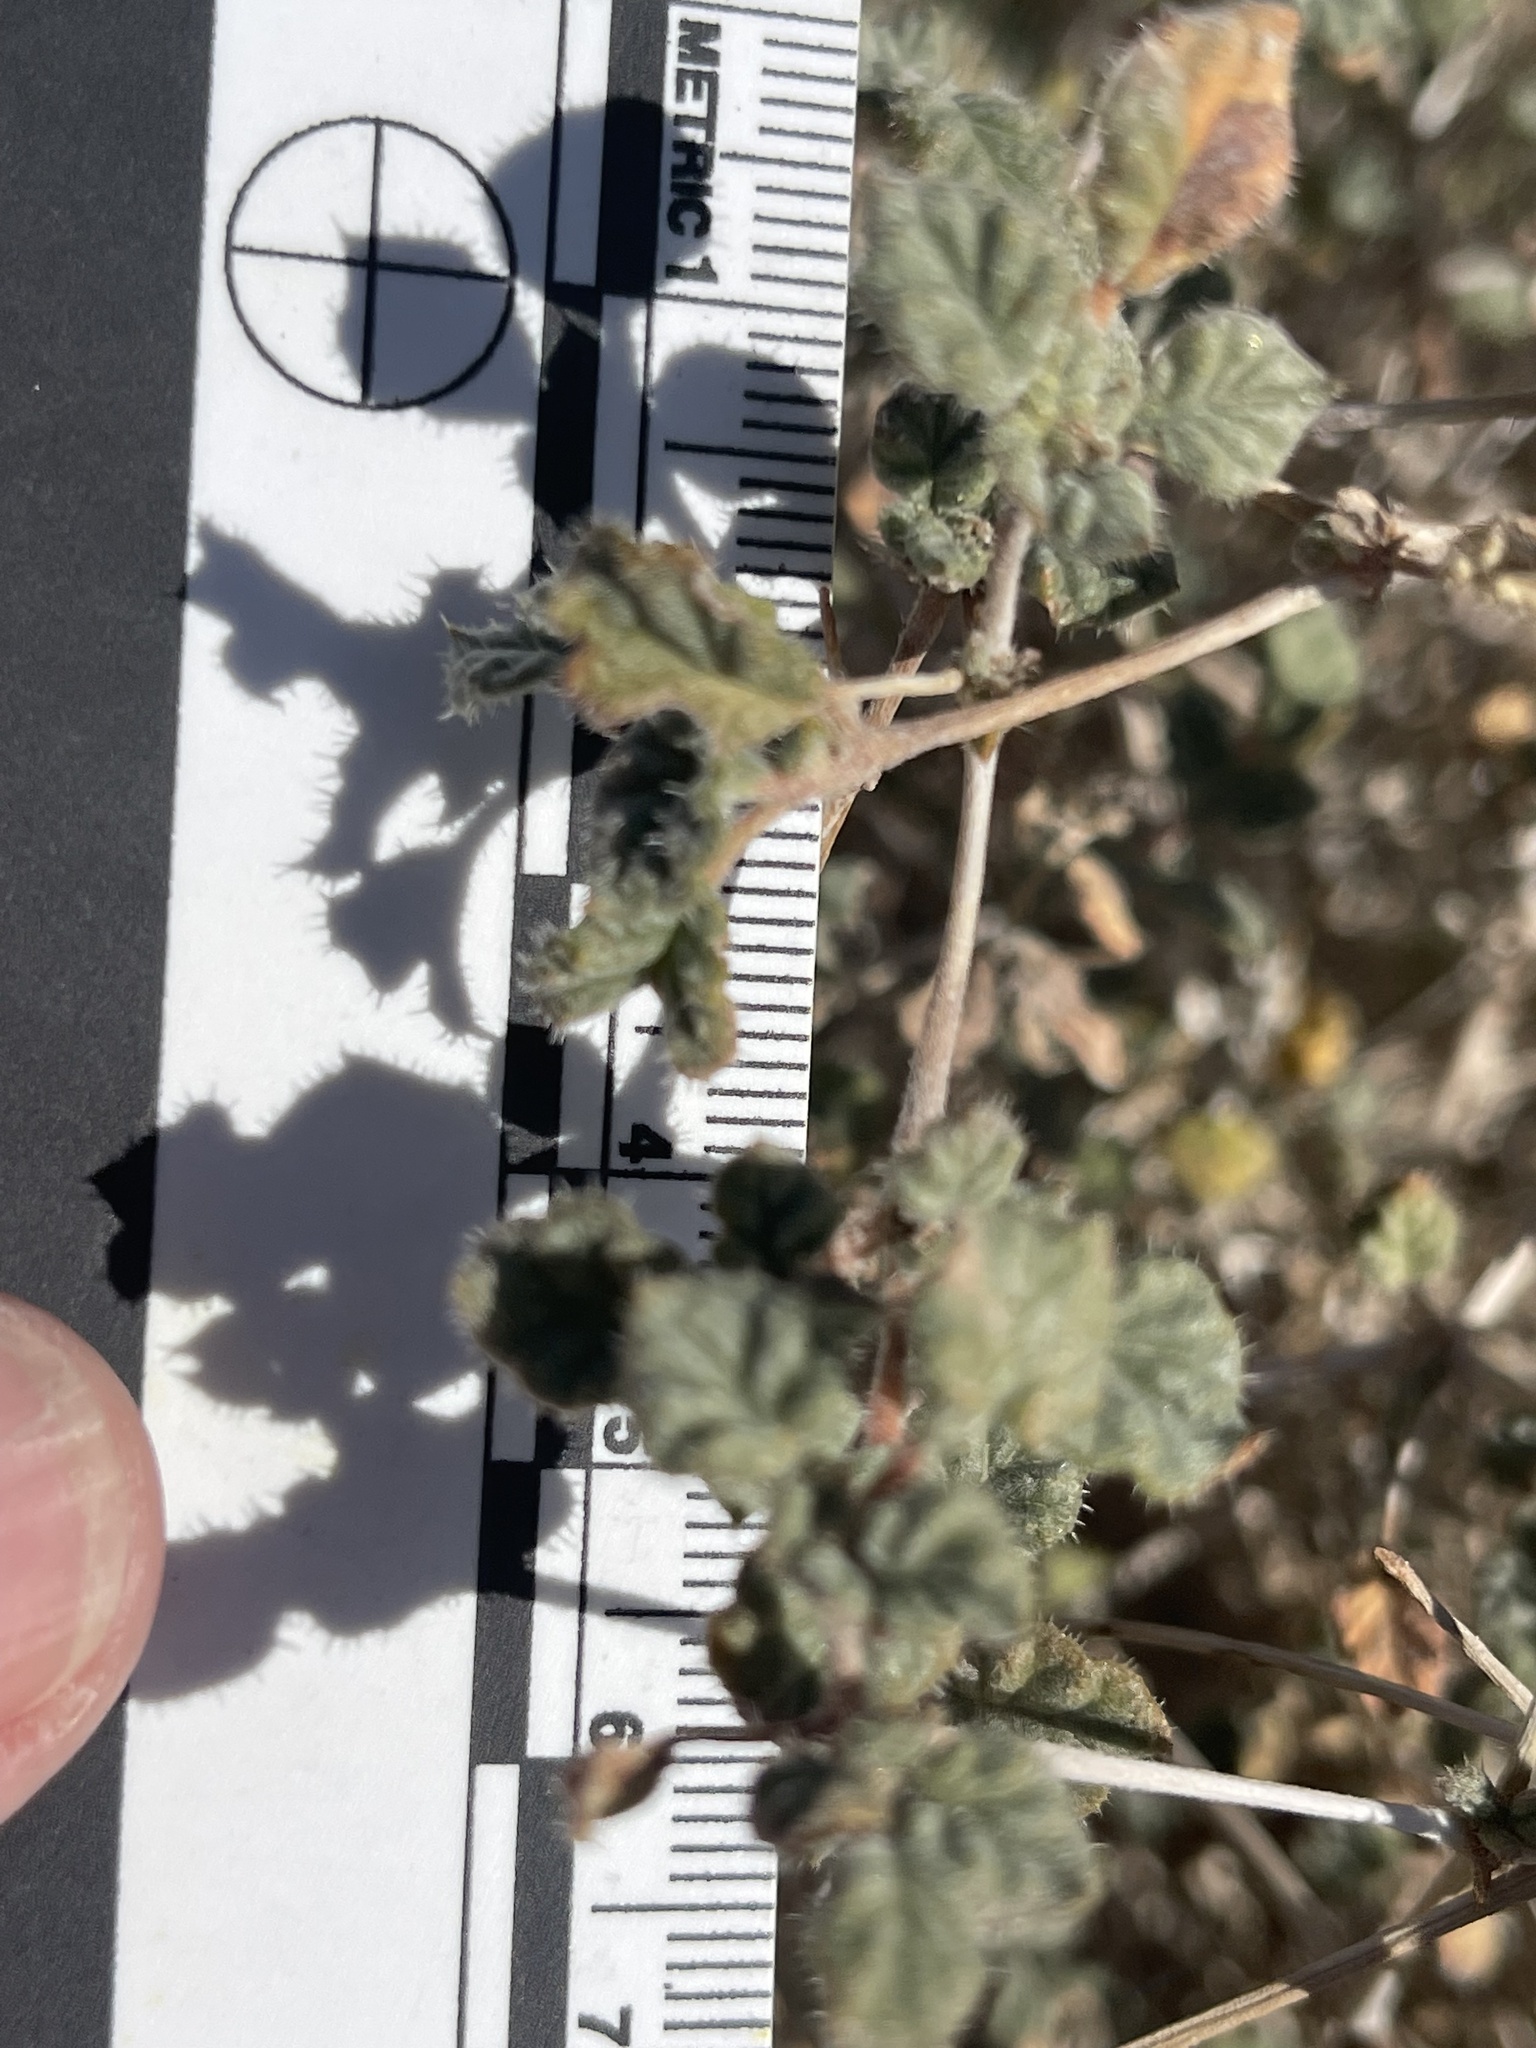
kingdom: Plantae
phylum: Tracheophyta
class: Magnoliopsida
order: Boraginales
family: Ehretiaceae
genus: Tiquilia
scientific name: Tiquilia palmeri
